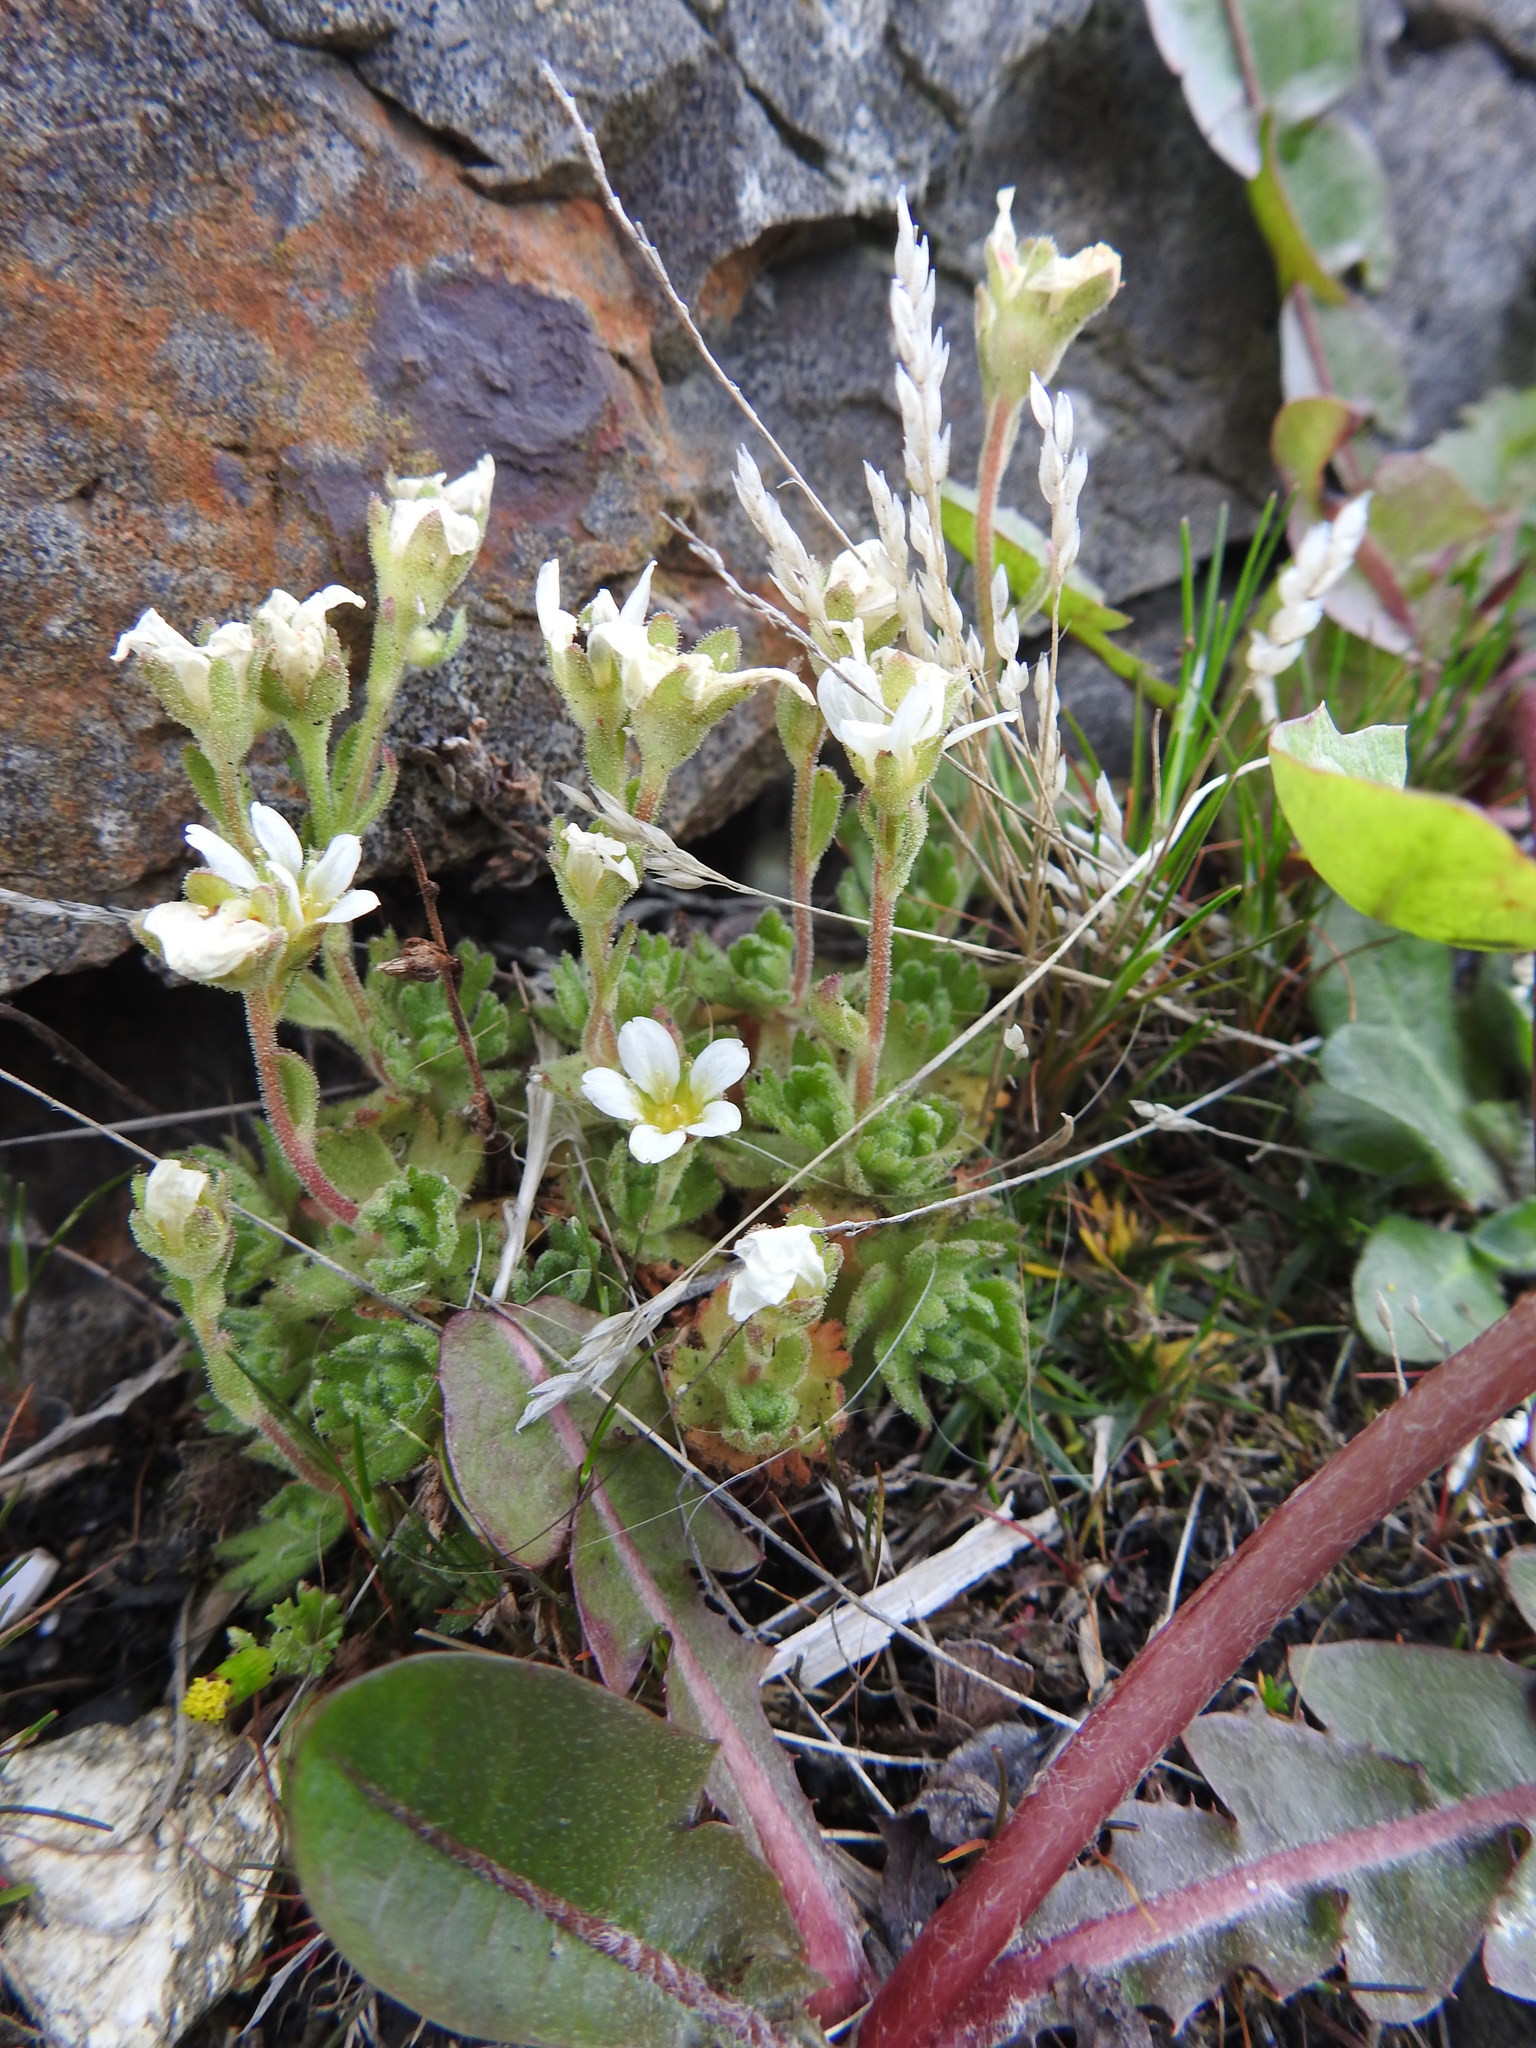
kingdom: Plantae
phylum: Tracheophyta
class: Magnoliopsida
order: Saxifragales
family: Saxifragaceae
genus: Saxifraga
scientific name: Saxifraga magellanica
